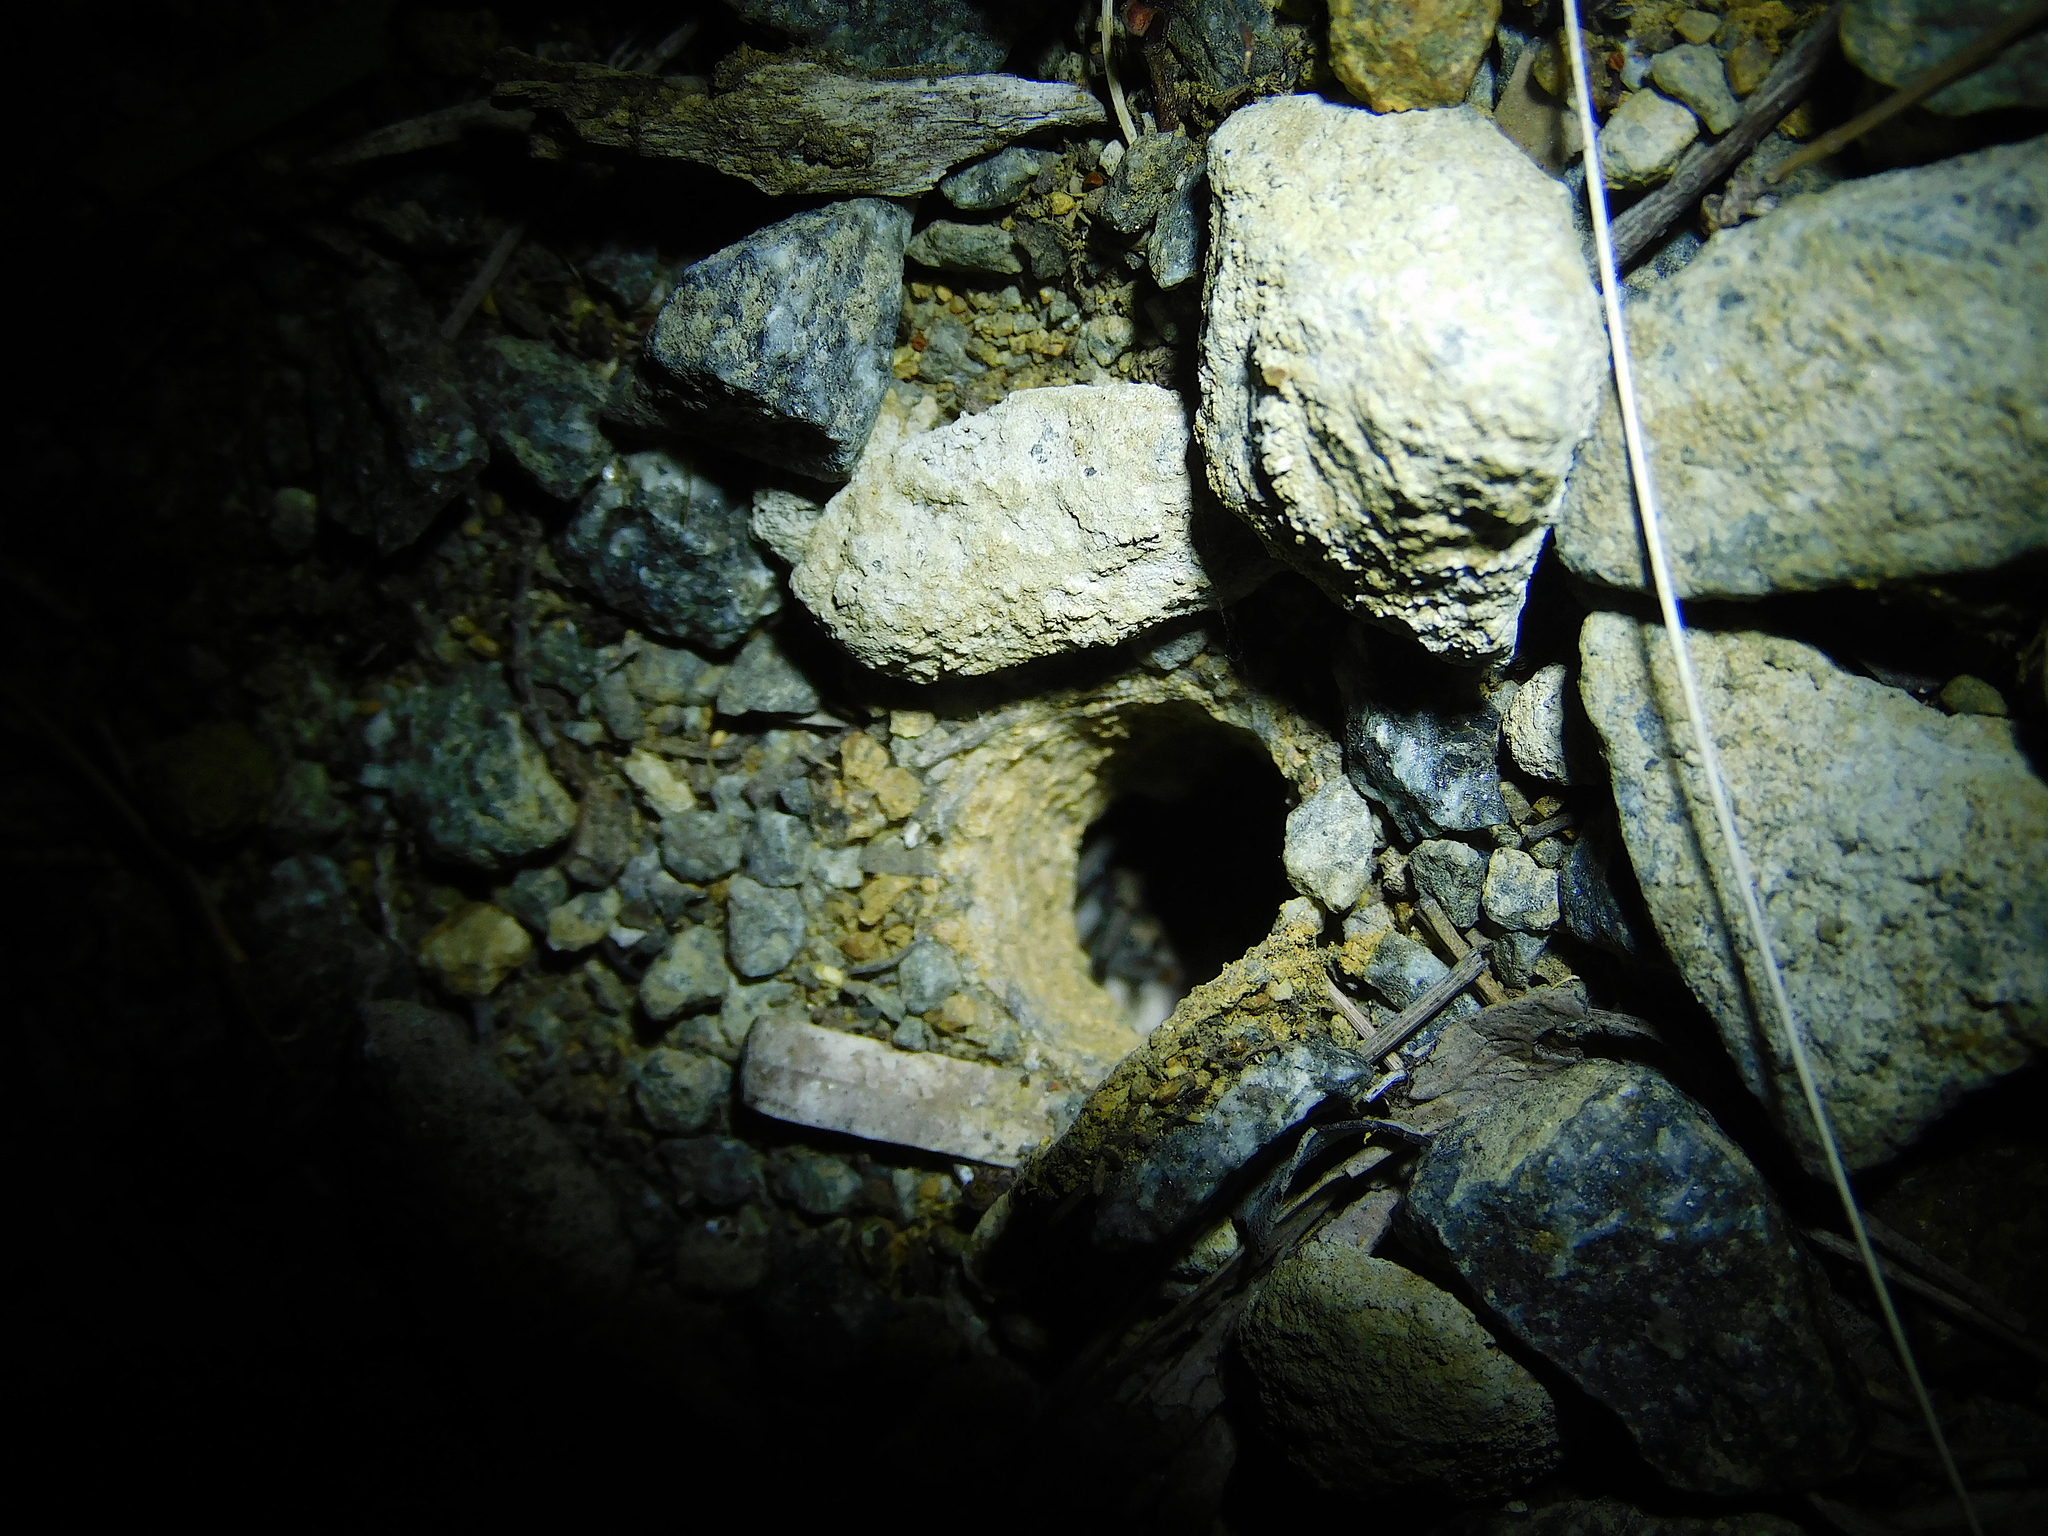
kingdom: Animalia
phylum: Arthropoda
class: Arachnida
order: Araneae
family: Lycosidae
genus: Portacosa
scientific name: Portacosa cinerea
